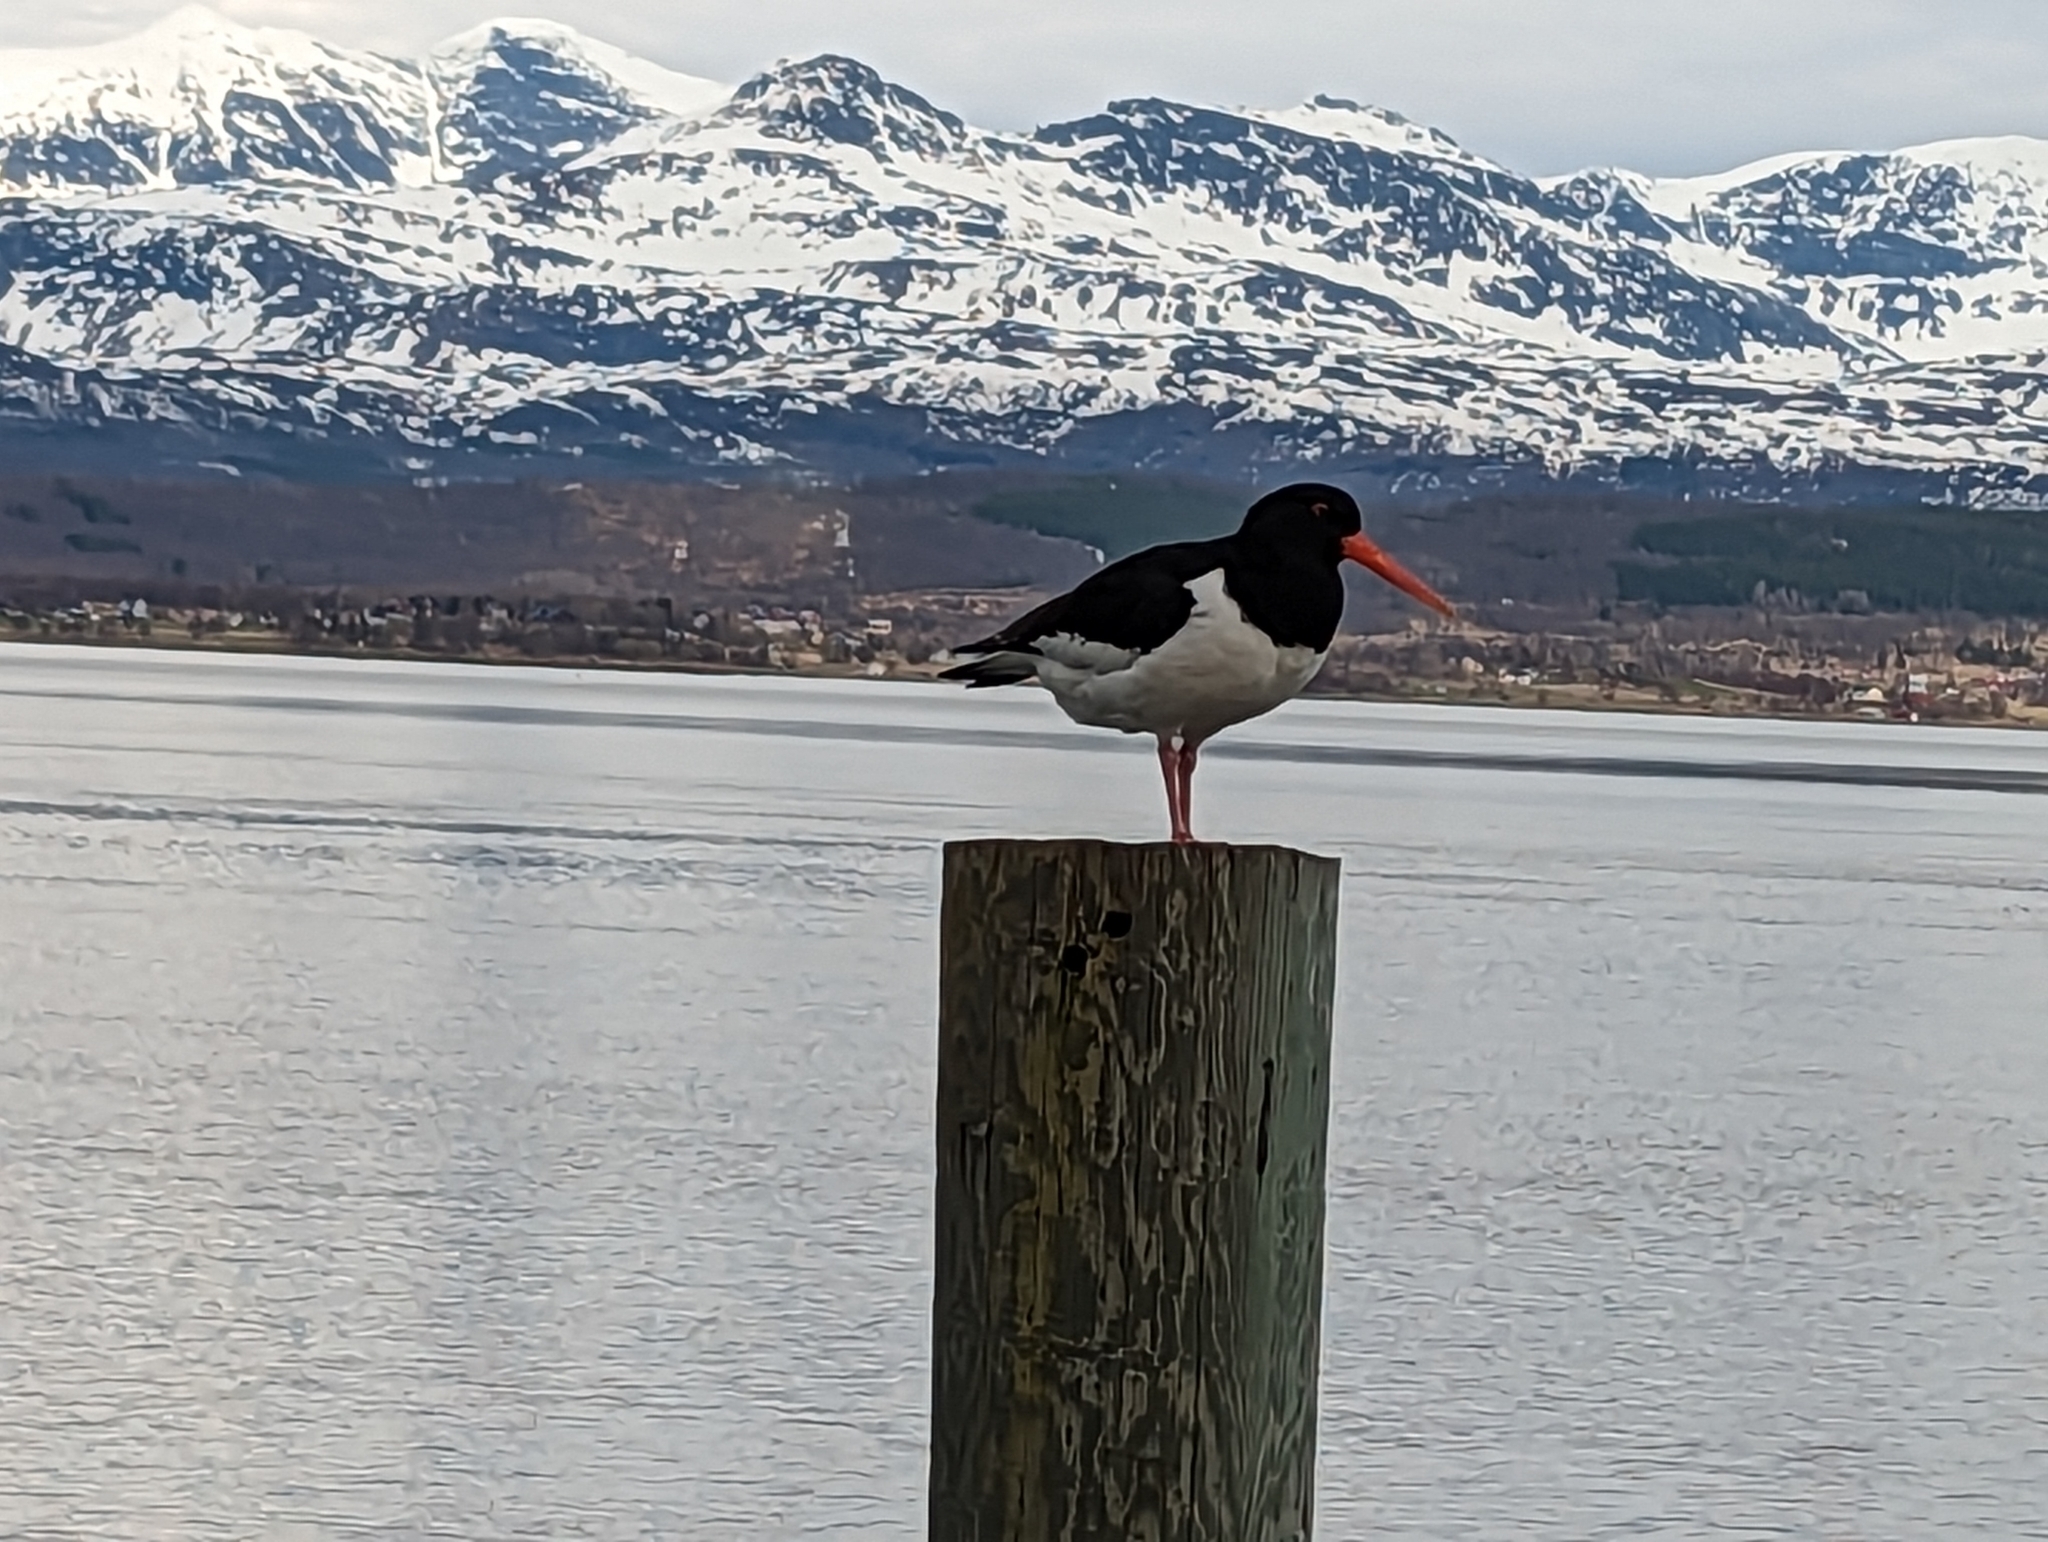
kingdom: Animalia
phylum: Chordata
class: Aves
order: Charadriiformes
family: Haematopodidae
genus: Haematopus
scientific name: Haematopus ostralegus
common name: Eurasian oystercatcher
